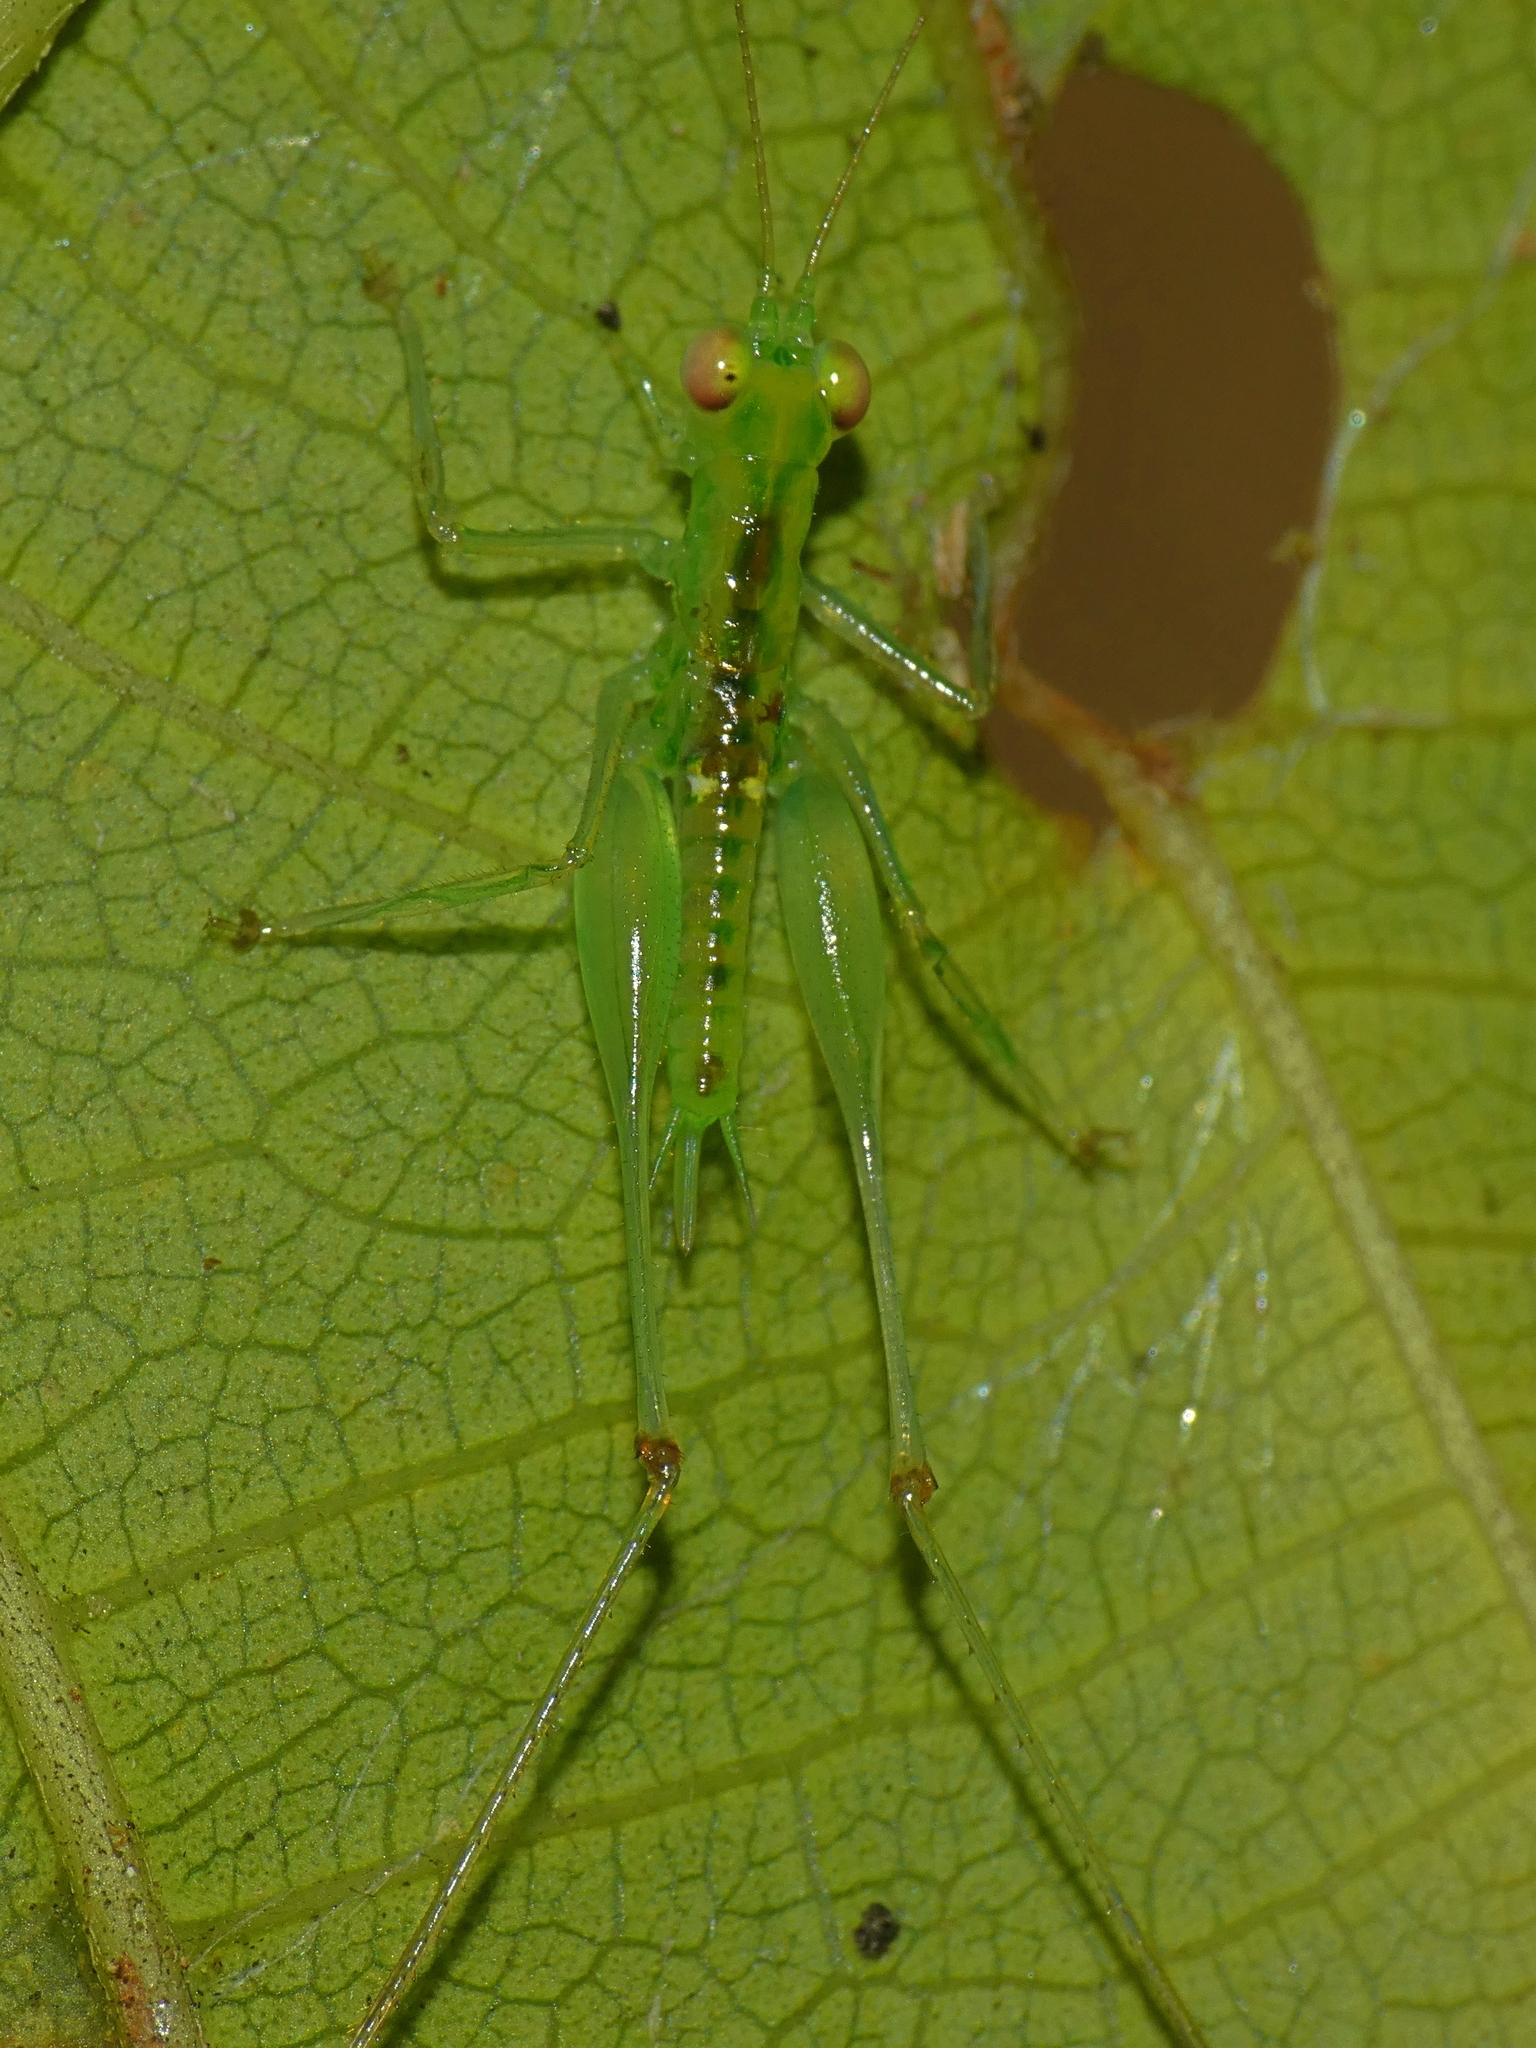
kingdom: Animalia
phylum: Arthropoda
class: Insecta
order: Orthoptera
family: Tettigoniidae
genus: Lucienola
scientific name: Lucienola brittoni
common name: Britton's swayer
